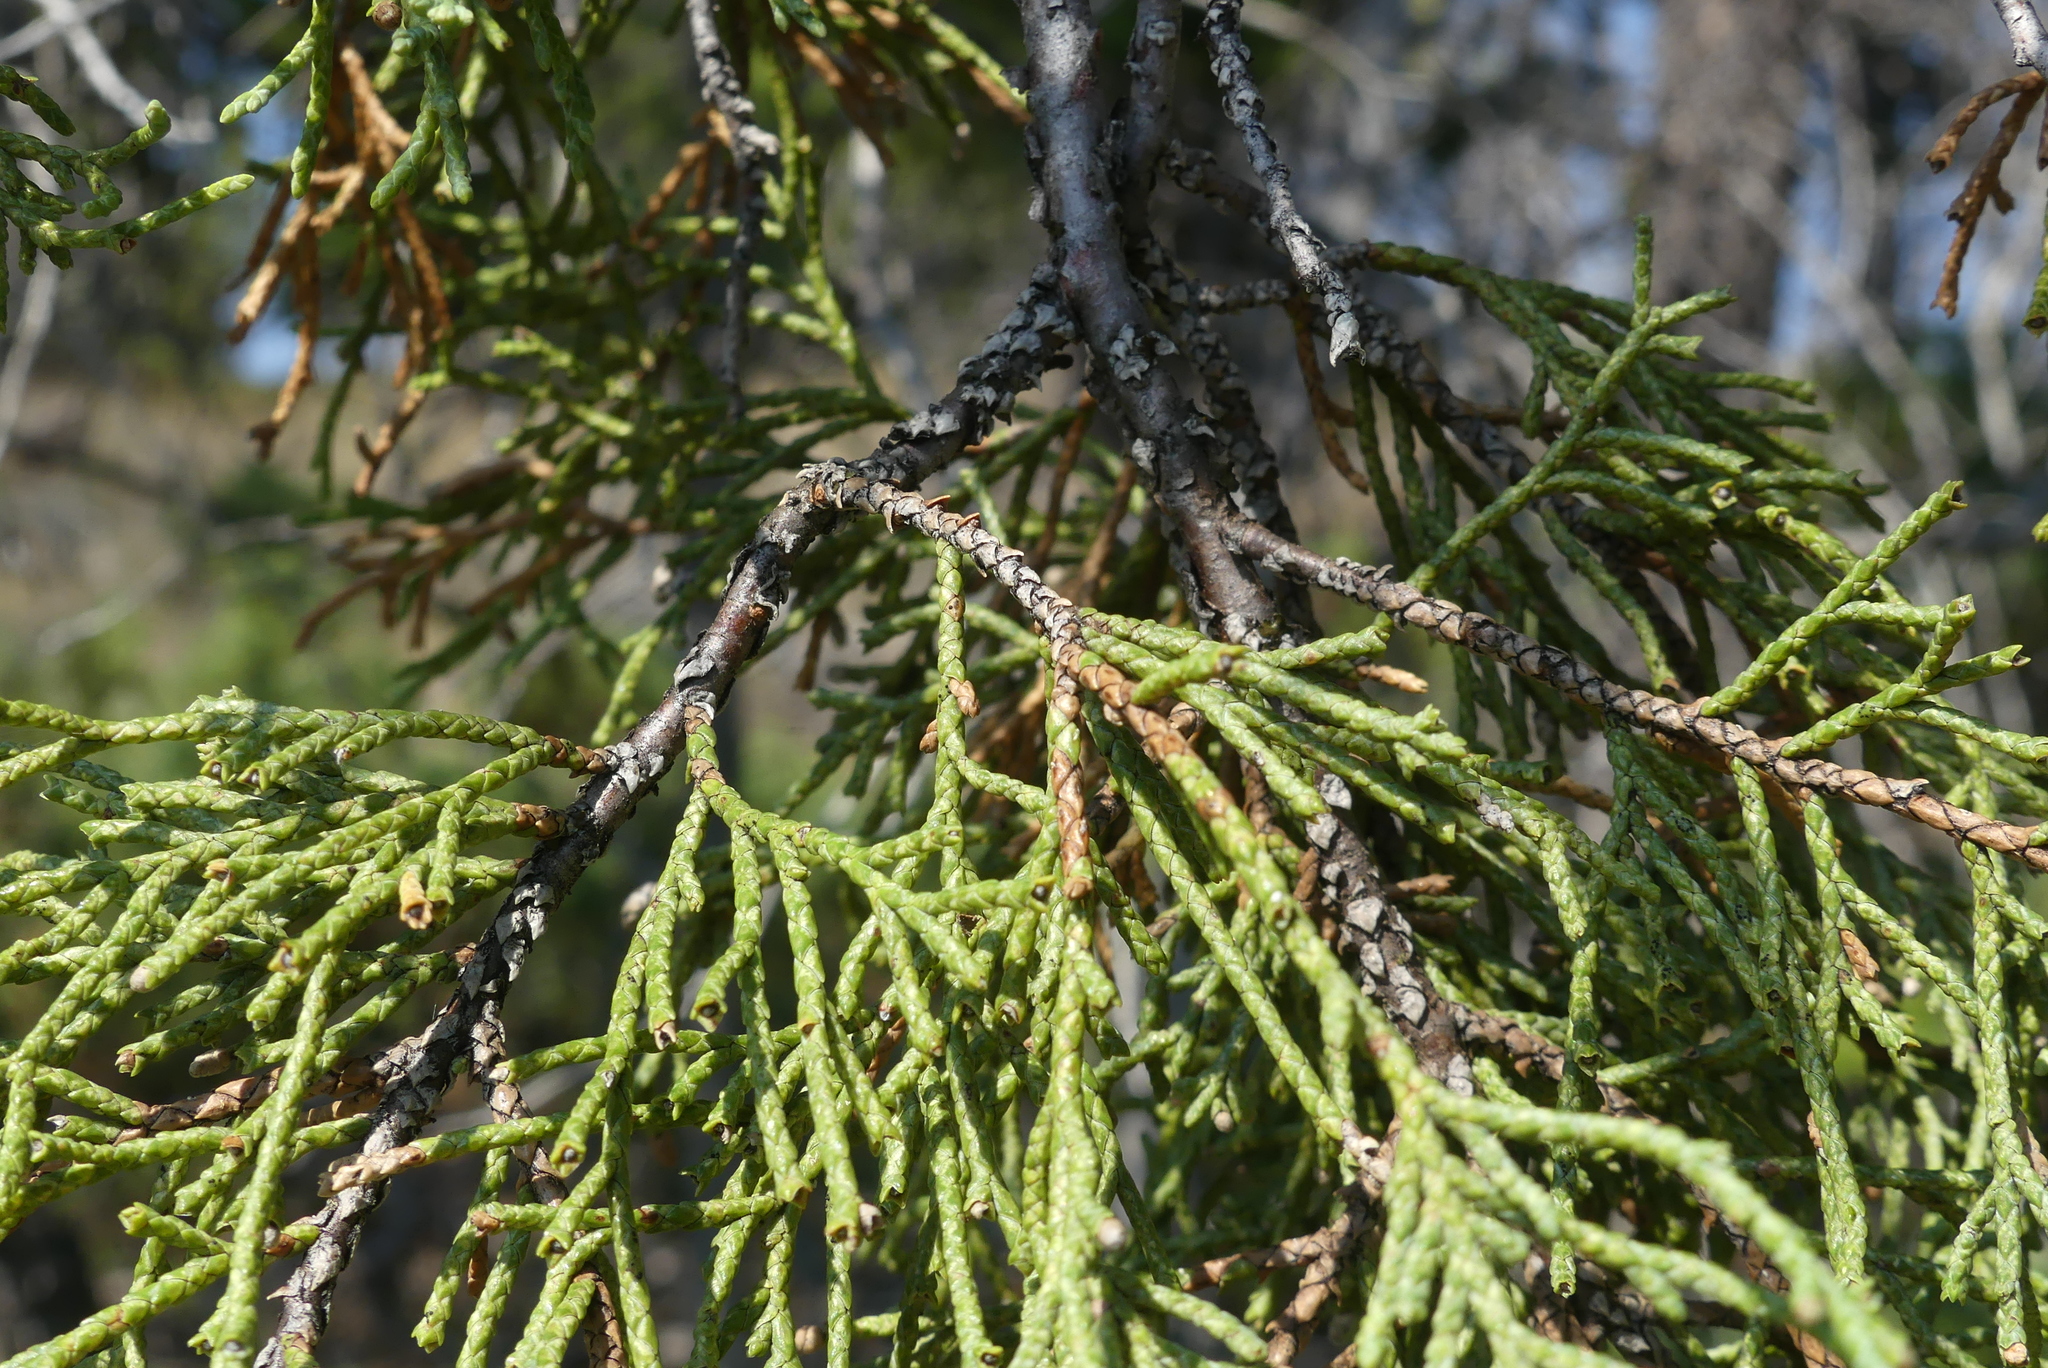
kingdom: Plantae
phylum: Tracheophyta
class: Pinopsida
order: Pinales
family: Cupressaceae
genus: Juniperus
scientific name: Juniperus scopulorum
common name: Rocky mountain juniper
